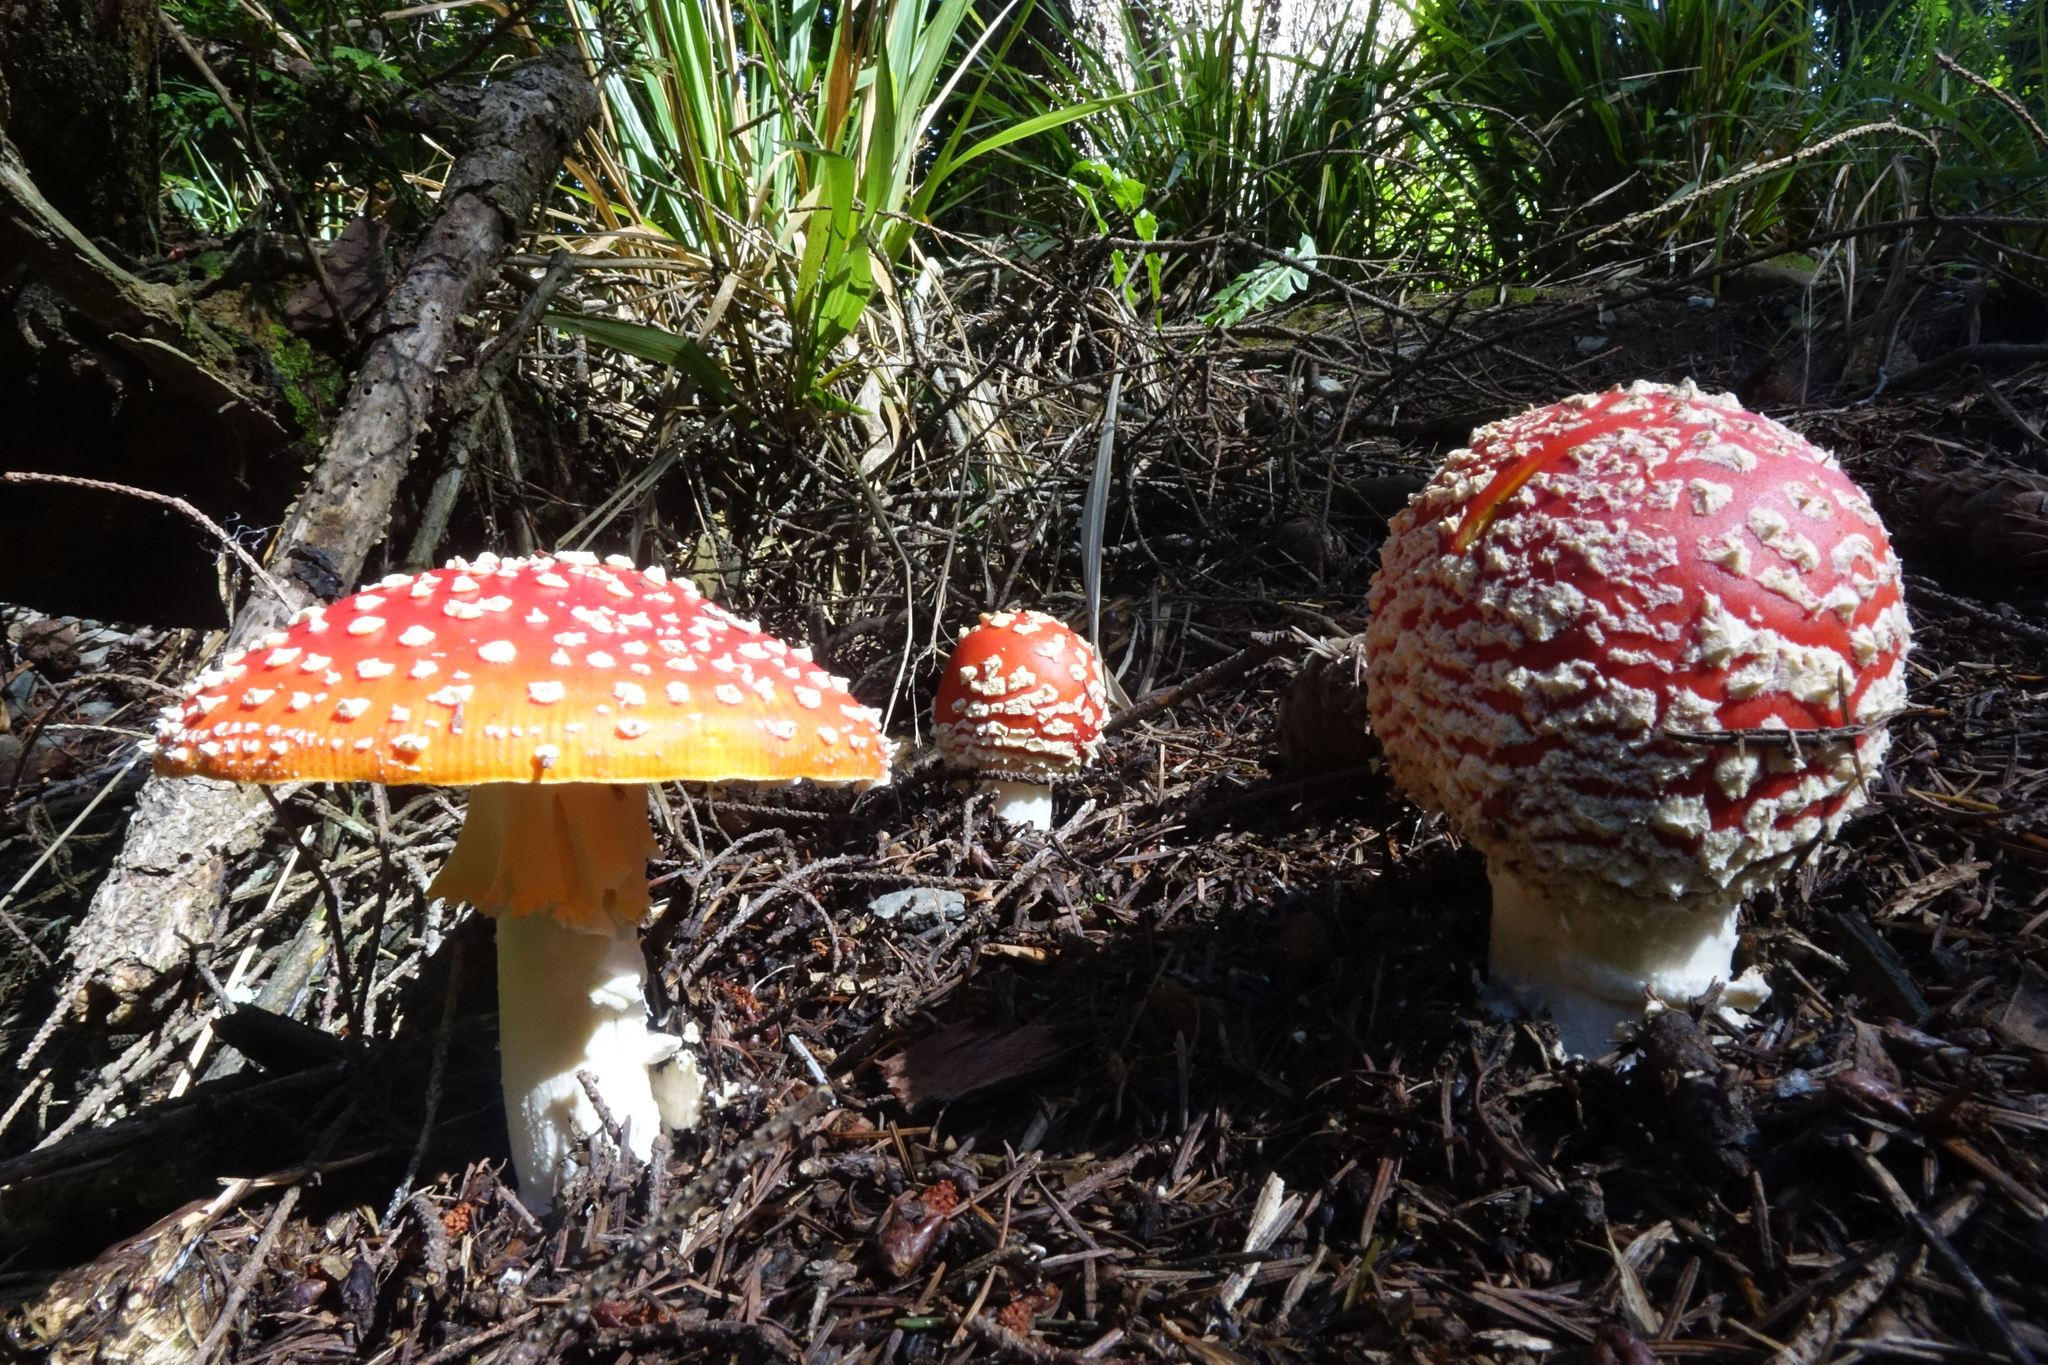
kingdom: Fungi
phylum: Basidiomycota
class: Agaricomycetes
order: Agaricales
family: Amanitaceae
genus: Amanita
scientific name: Amanita muscaria
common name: Fly agaric
